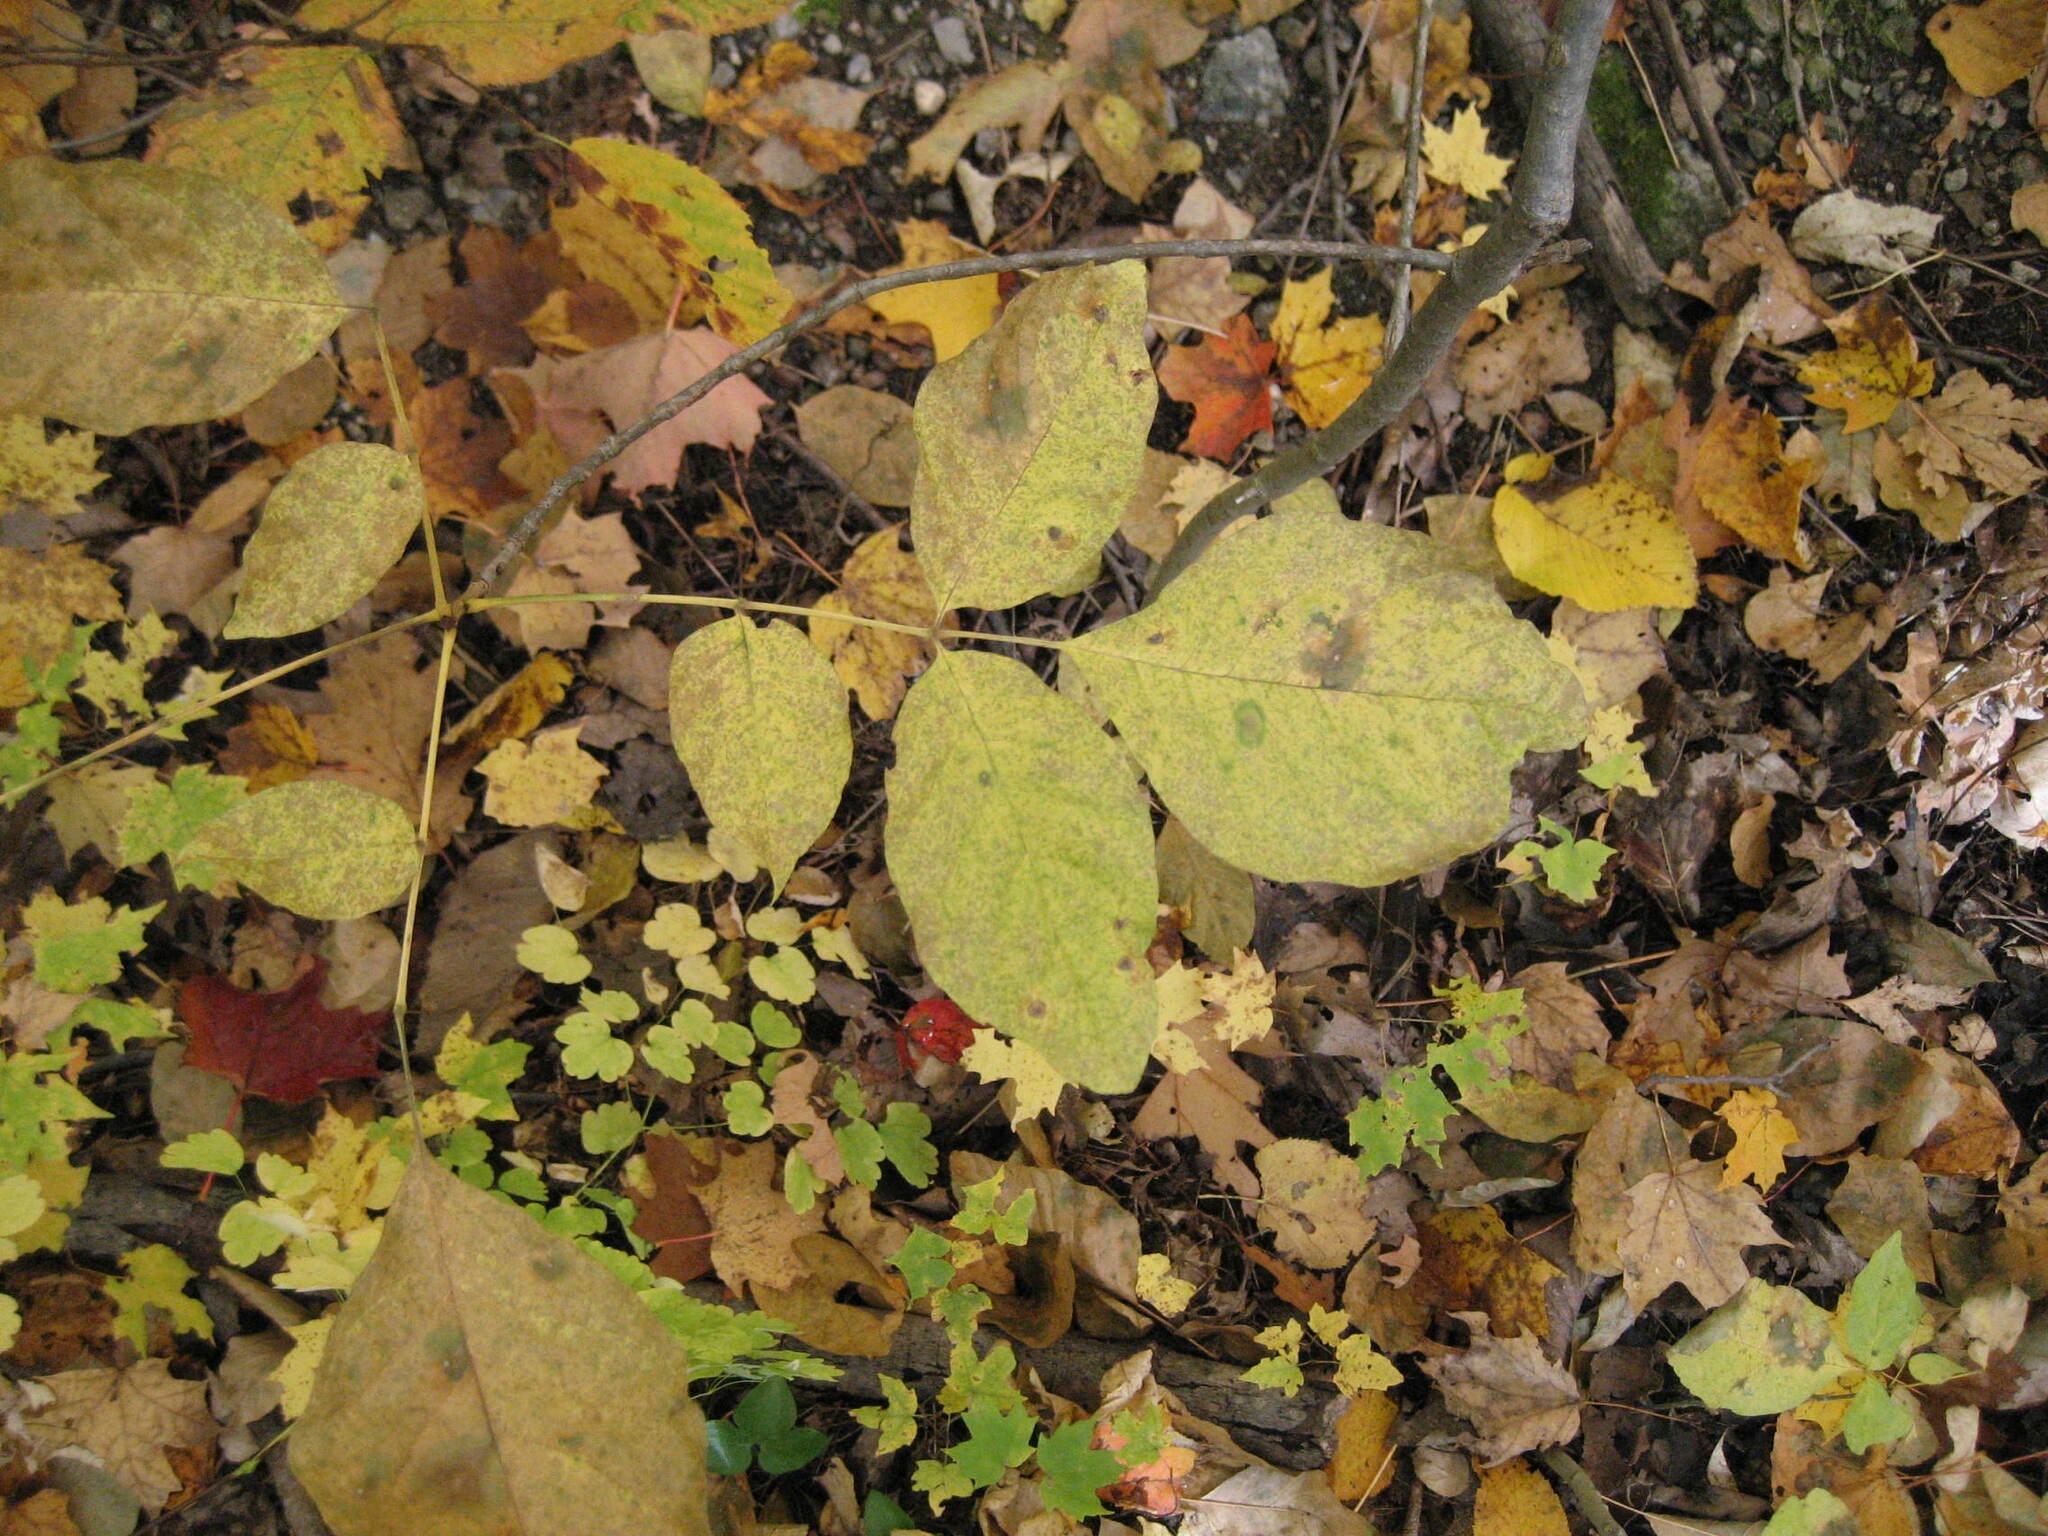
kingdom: Plantae
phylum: Tracheophyta
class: Magnoliopsida
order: Lamiales
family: Oleaceae
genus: Fraxinus
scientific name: Fraxinus americana
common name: White ash
